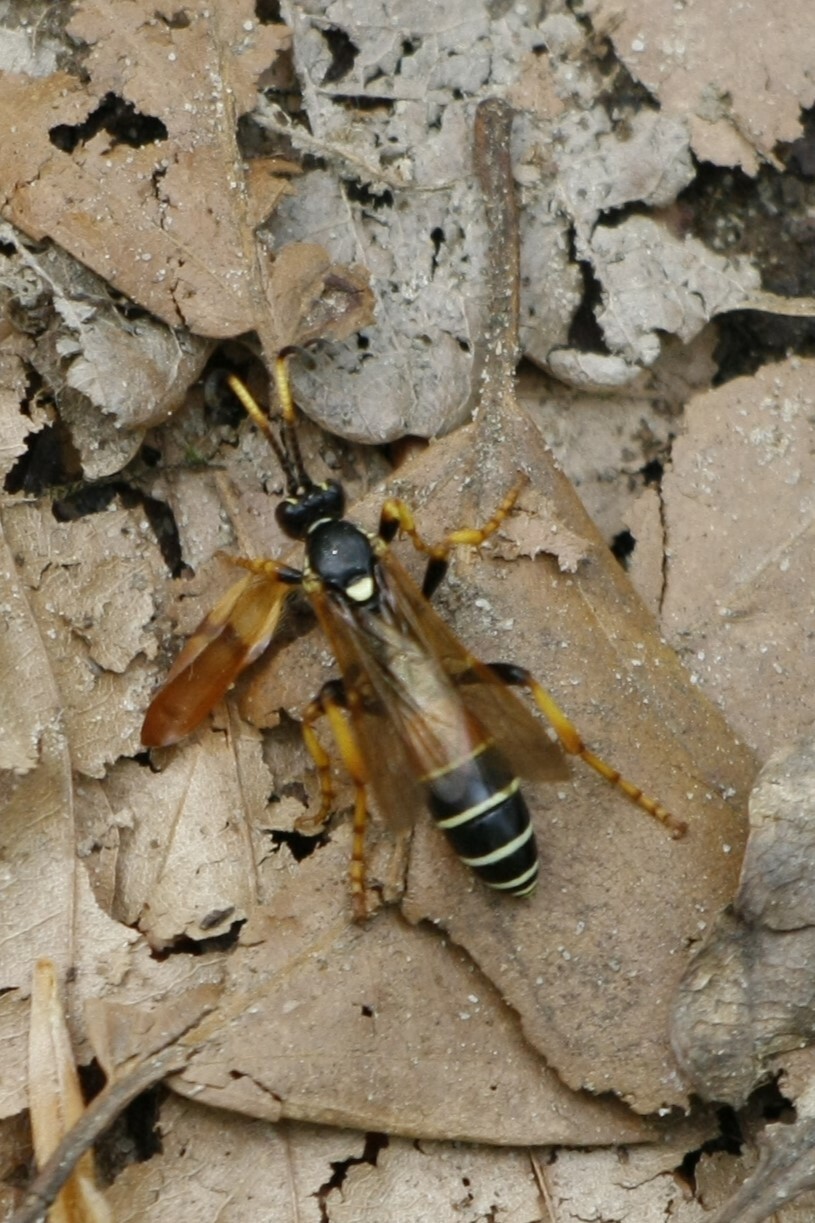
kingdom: Animalia
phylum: Arthropoda
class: Insecta
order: Hymenoptera
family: Ichneumonidae
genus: Diphyus
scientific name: Diphyus amatorius
